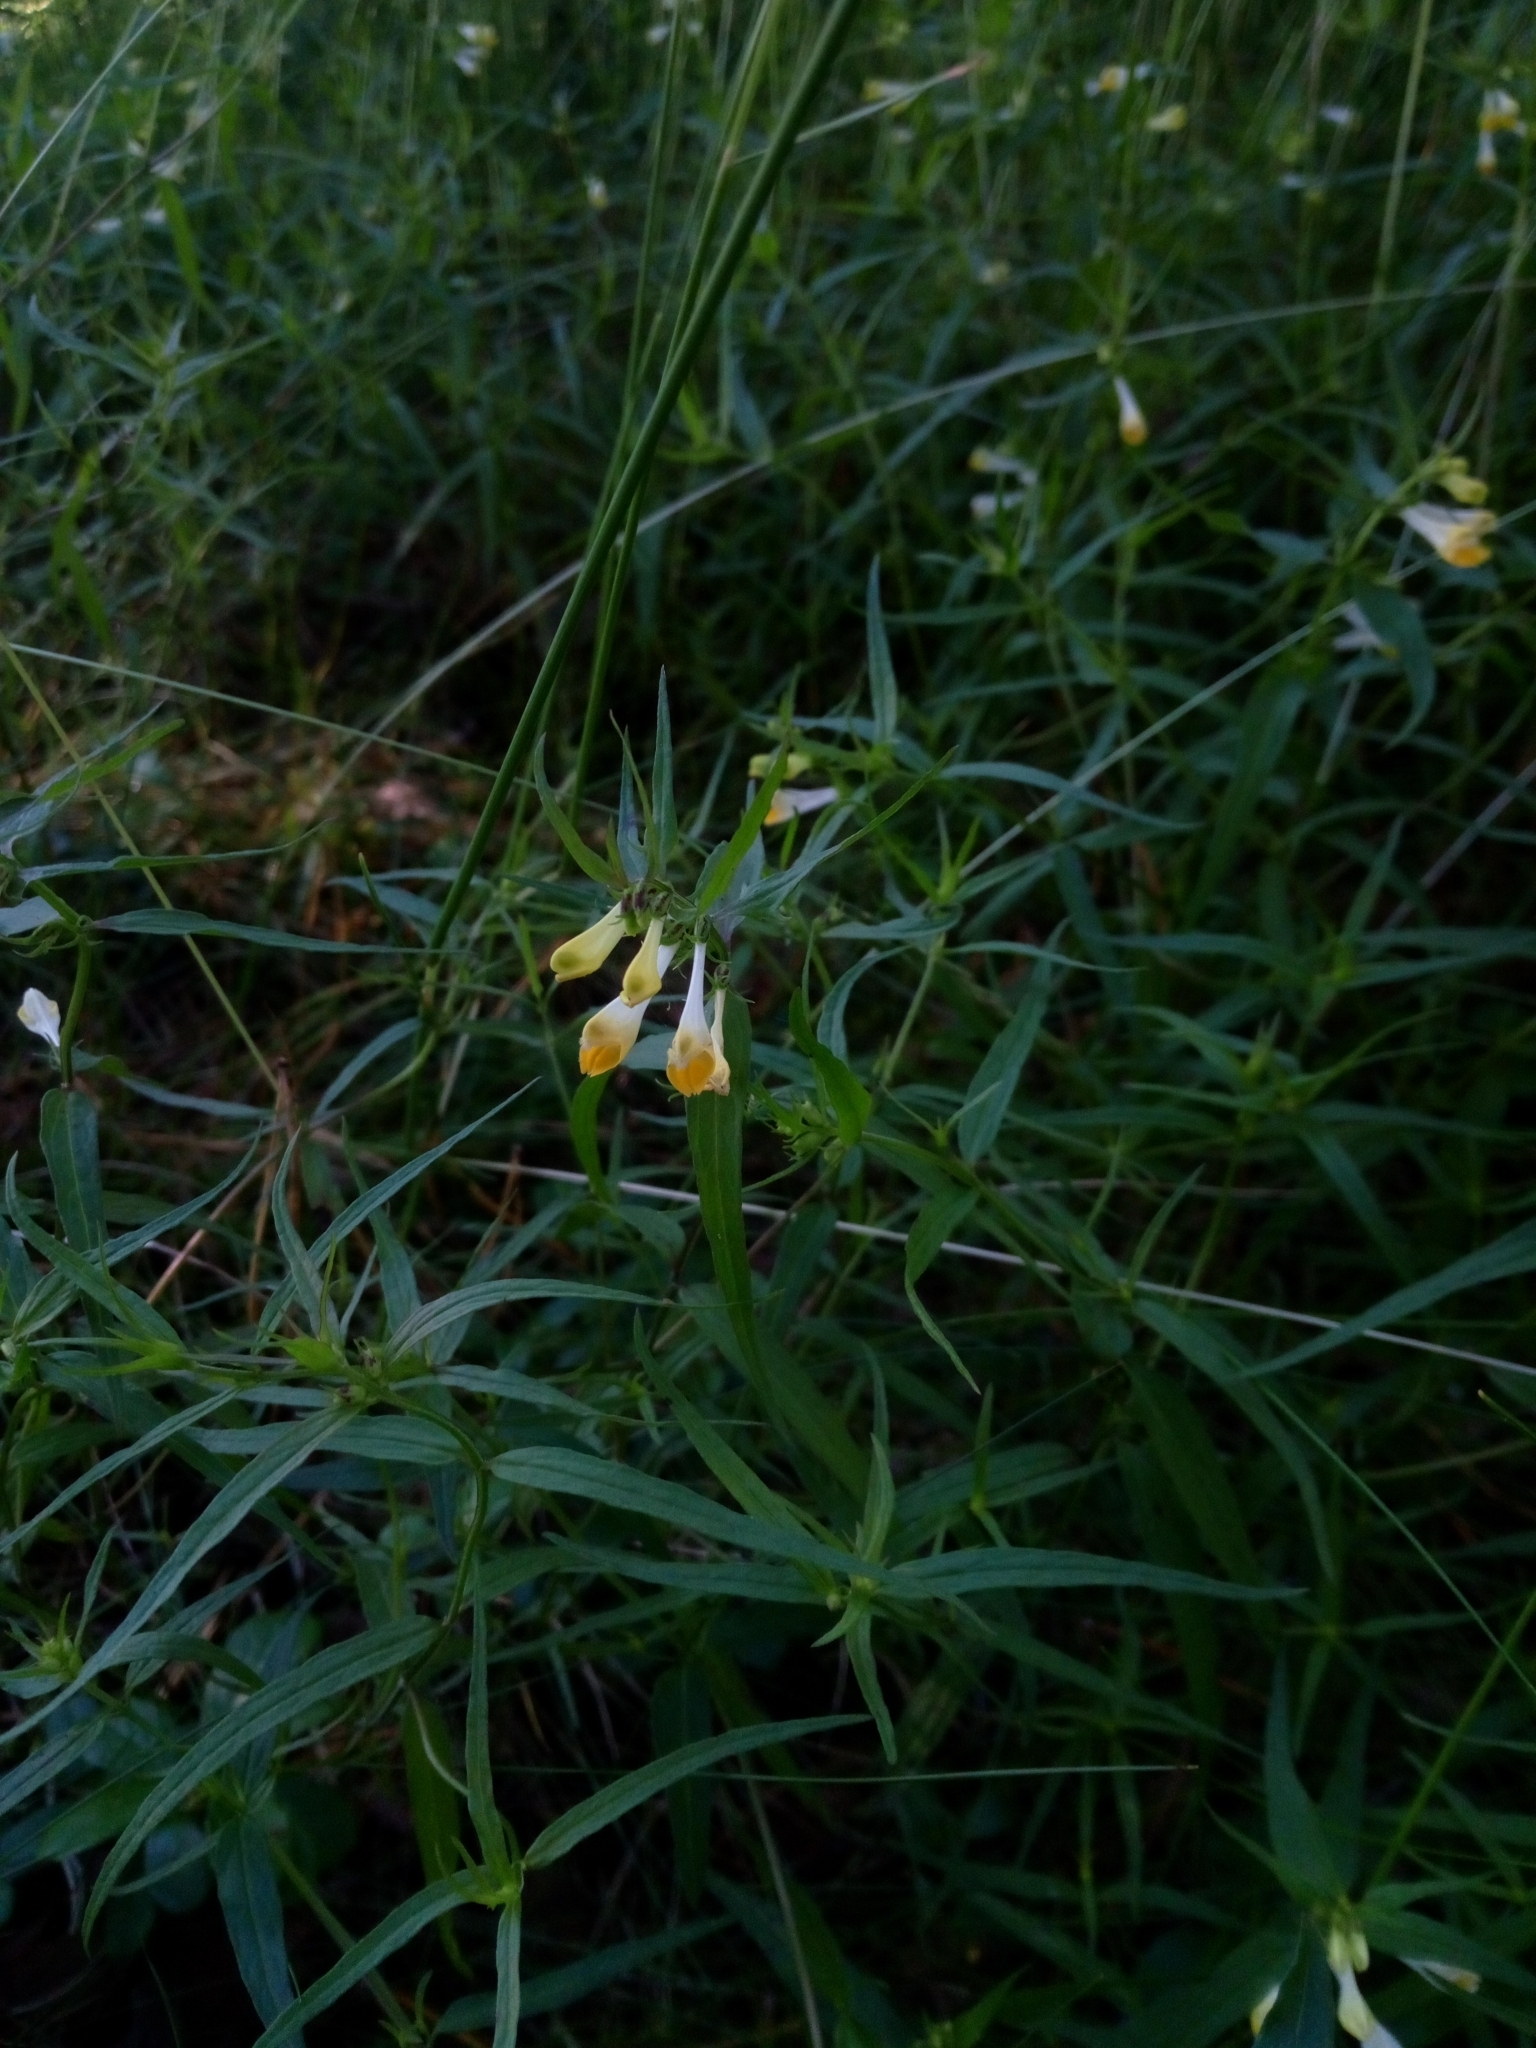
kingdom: Plantae
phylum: Tracheophyta
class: Magnoliopsida
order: Lamiales
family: Orobanchaceae
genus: Melampyrum
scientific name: Melampyrum pratense
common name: Common cow-wheat
